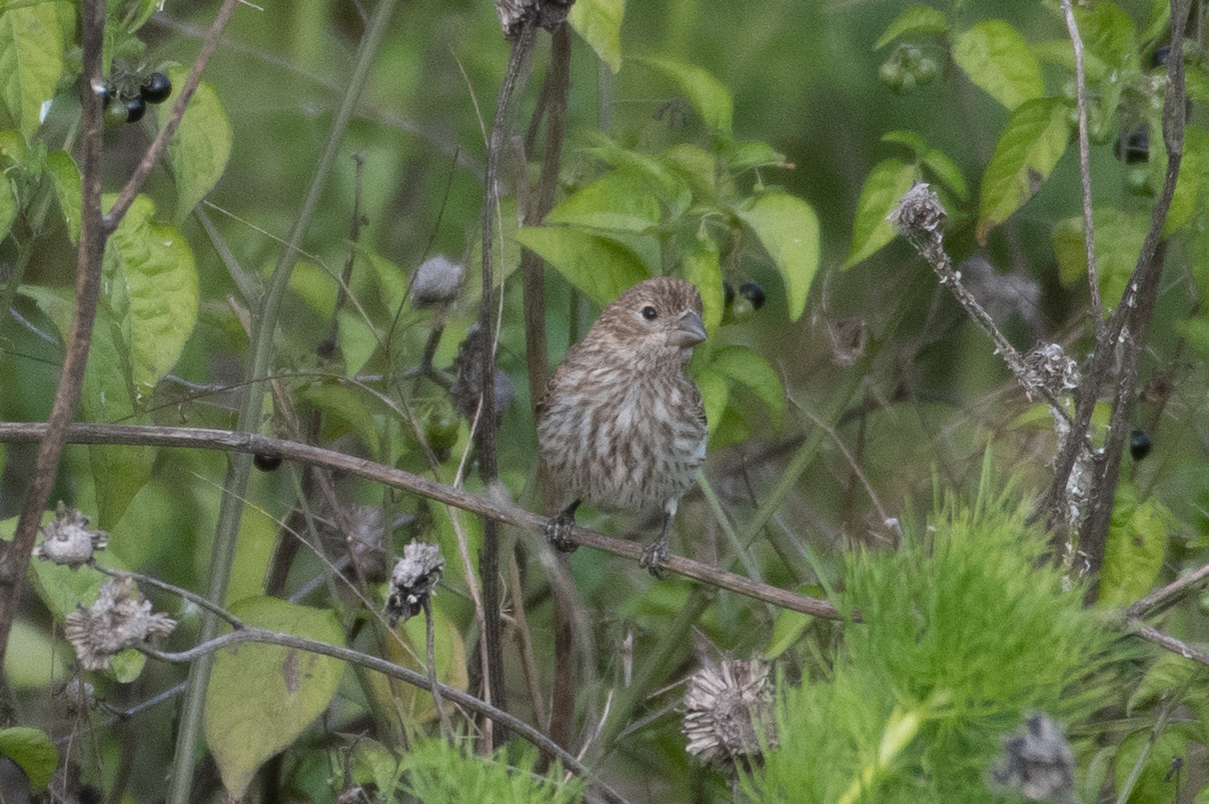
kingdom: Animalia
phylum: Chordata
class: Aves
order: Passeriformes
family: Fringillidae
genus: Haemorhous
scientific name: Haemorhous mexicanus
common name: House finch
